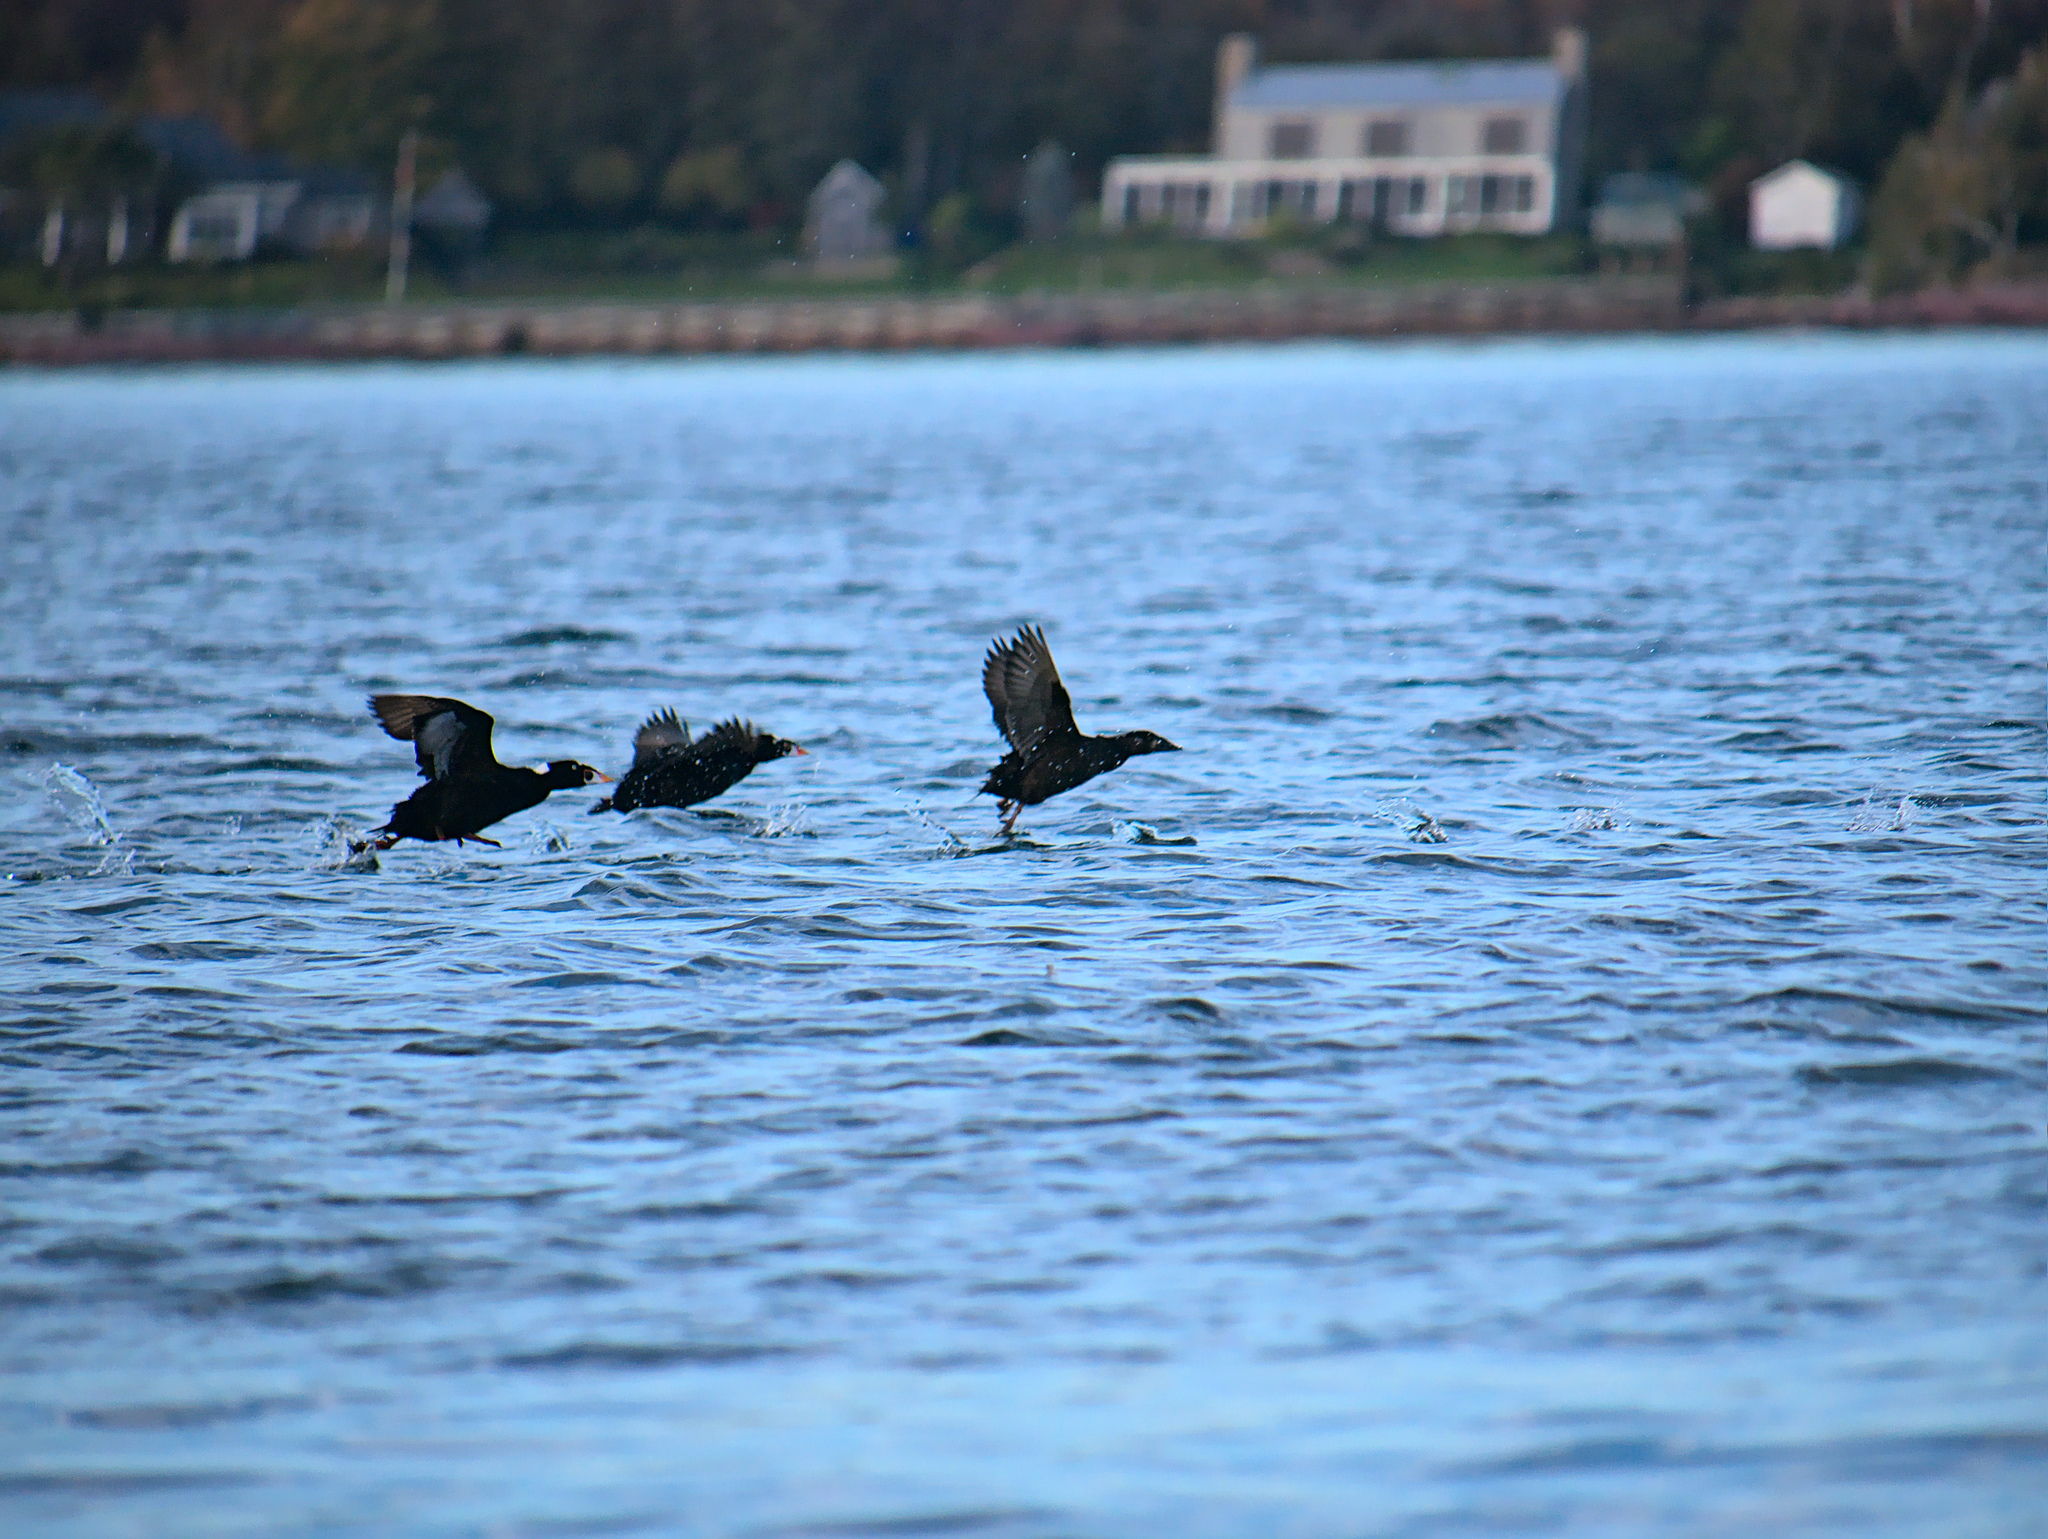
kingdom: Animalia
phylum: Chordata
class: Aves
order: Anseriformes
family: Anatidae
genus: Melanitta
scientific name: Melanitta perspicillata
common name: Surf scoter
